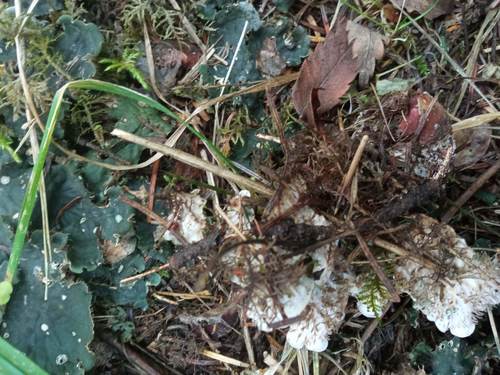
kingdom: Fungi
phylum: Ascomycota
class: Lecanoromycetes
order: Peltigerales
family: Peltigeraceae
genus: Peltigera
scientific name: Peltigera canina
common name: Dog pelt lichen
